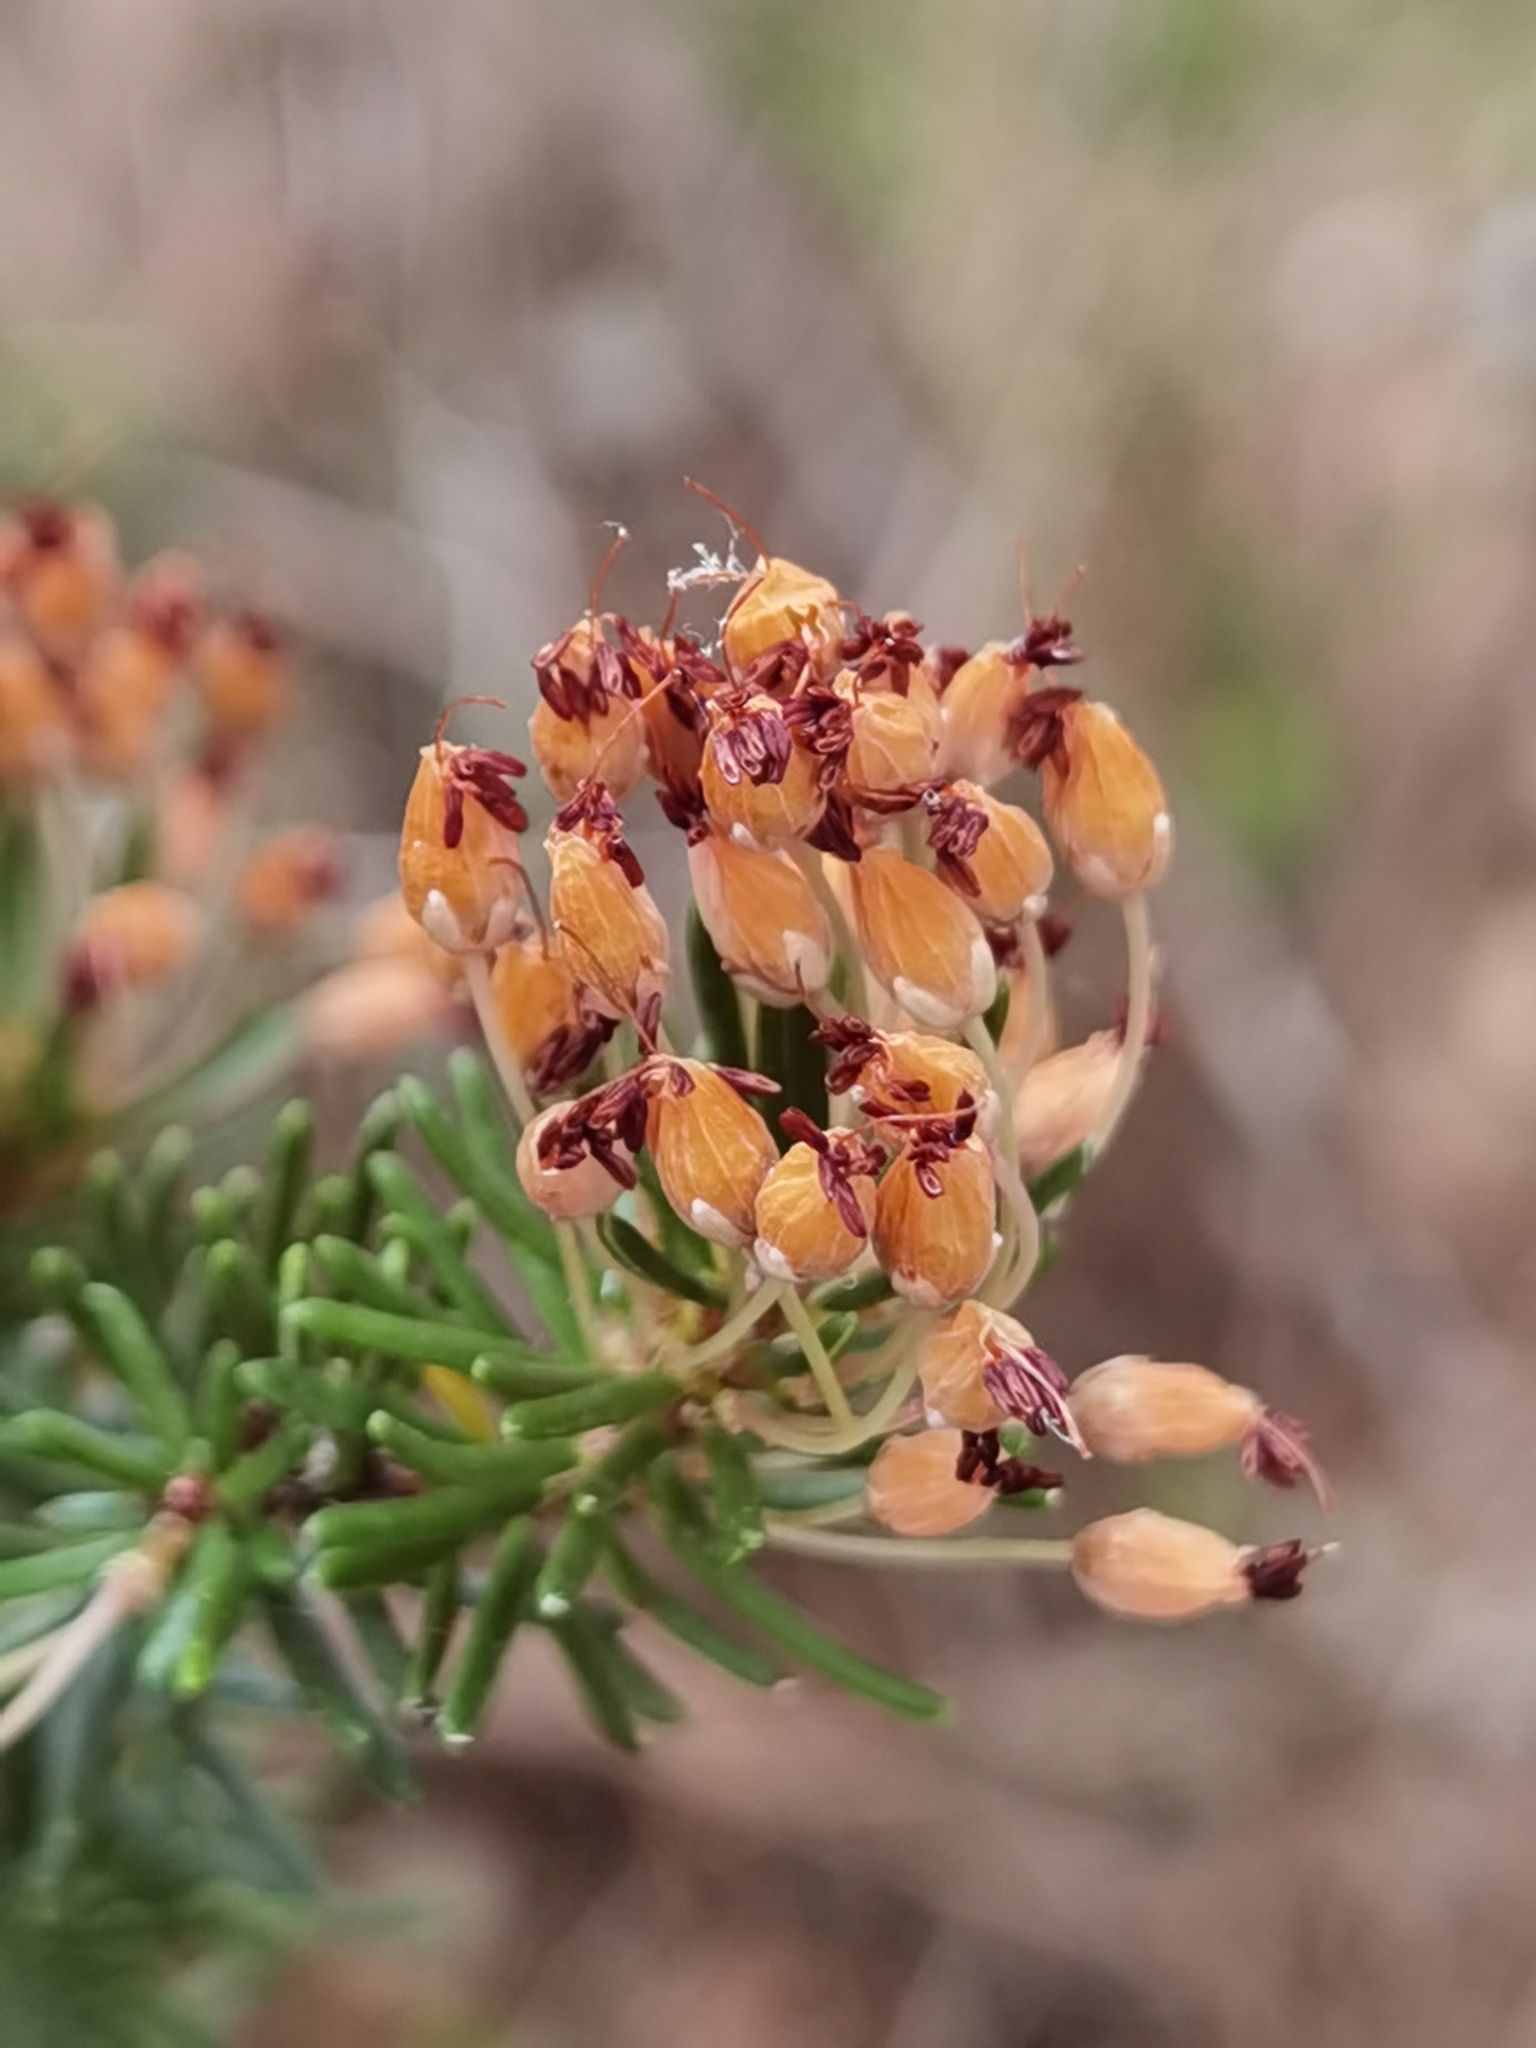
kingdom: Plantae
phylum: Tracheophyta
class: Magnoliopsida
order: Ericales
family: Ericaceae
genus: Erica
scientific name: Erica multiflora
